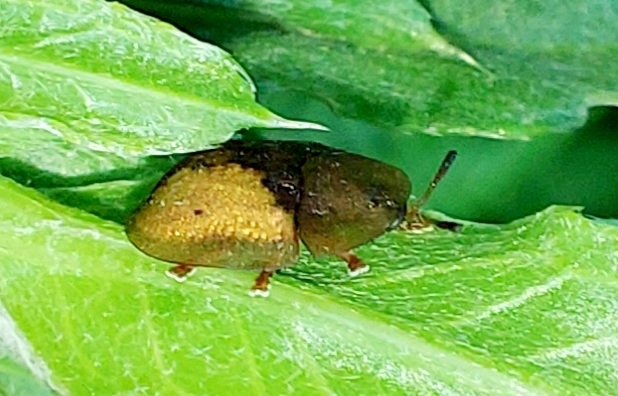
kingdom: Animalia
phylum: Arthropoda
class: Insecta
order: Coleoptera
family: Chrysomelidae
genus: Cassida
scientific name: Cassida vibex
